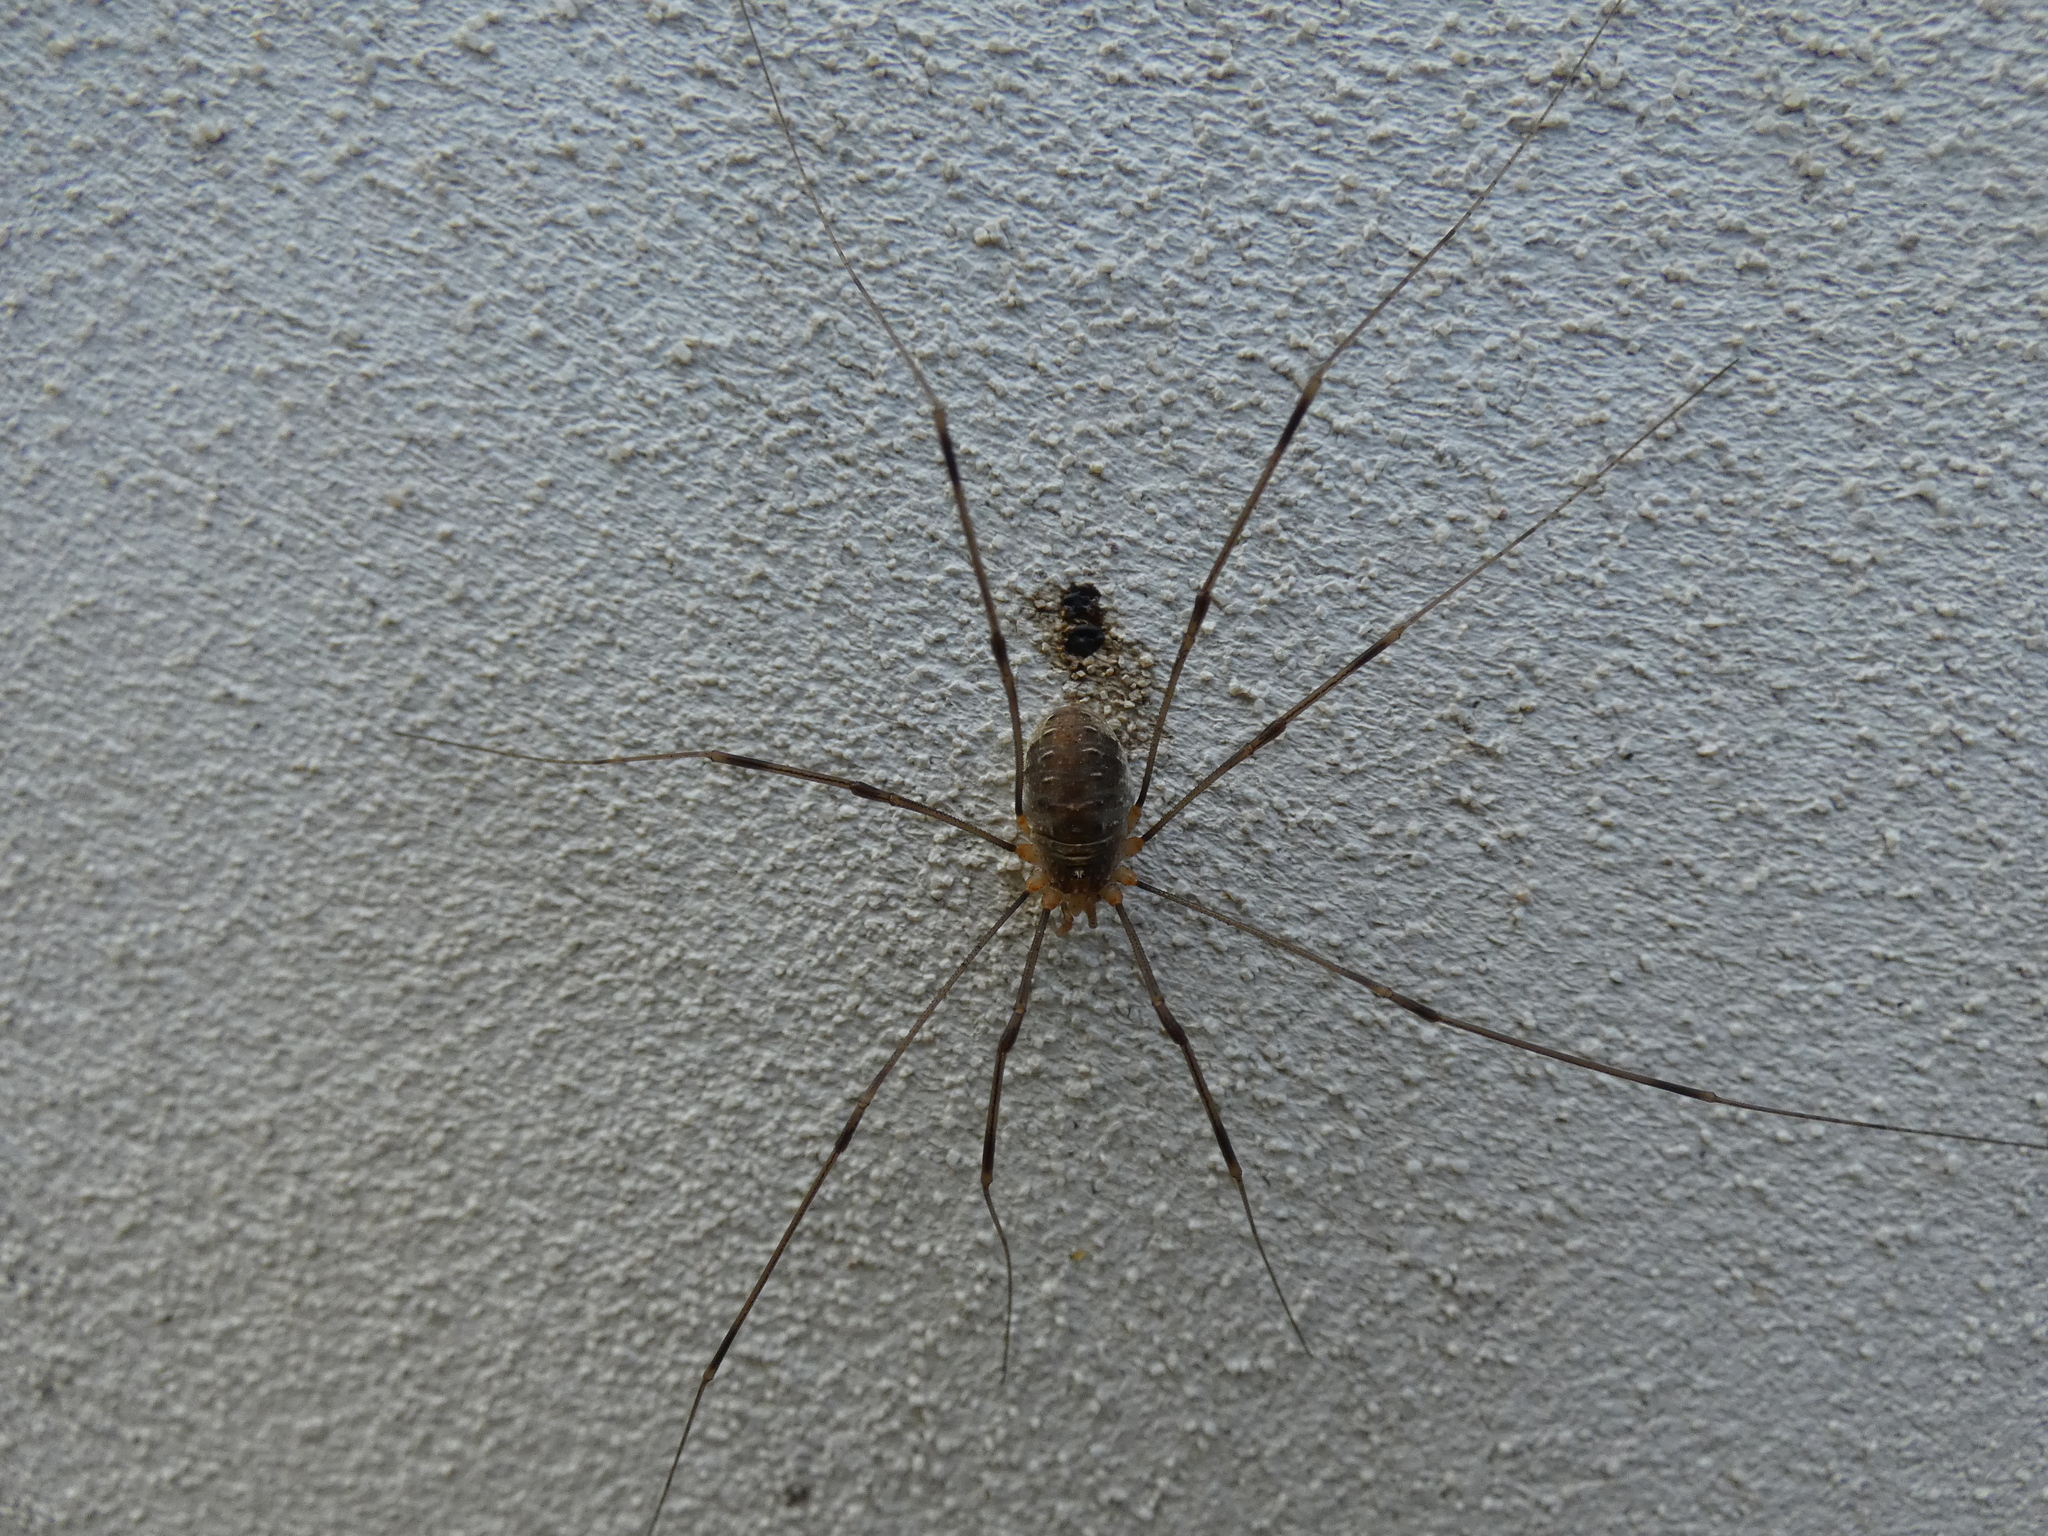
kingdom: Animalia
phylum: Arthropoda
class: Arachnida
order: Opiliones
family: Phalangiidae
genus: Opilio
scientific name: Opilio canestrinii
